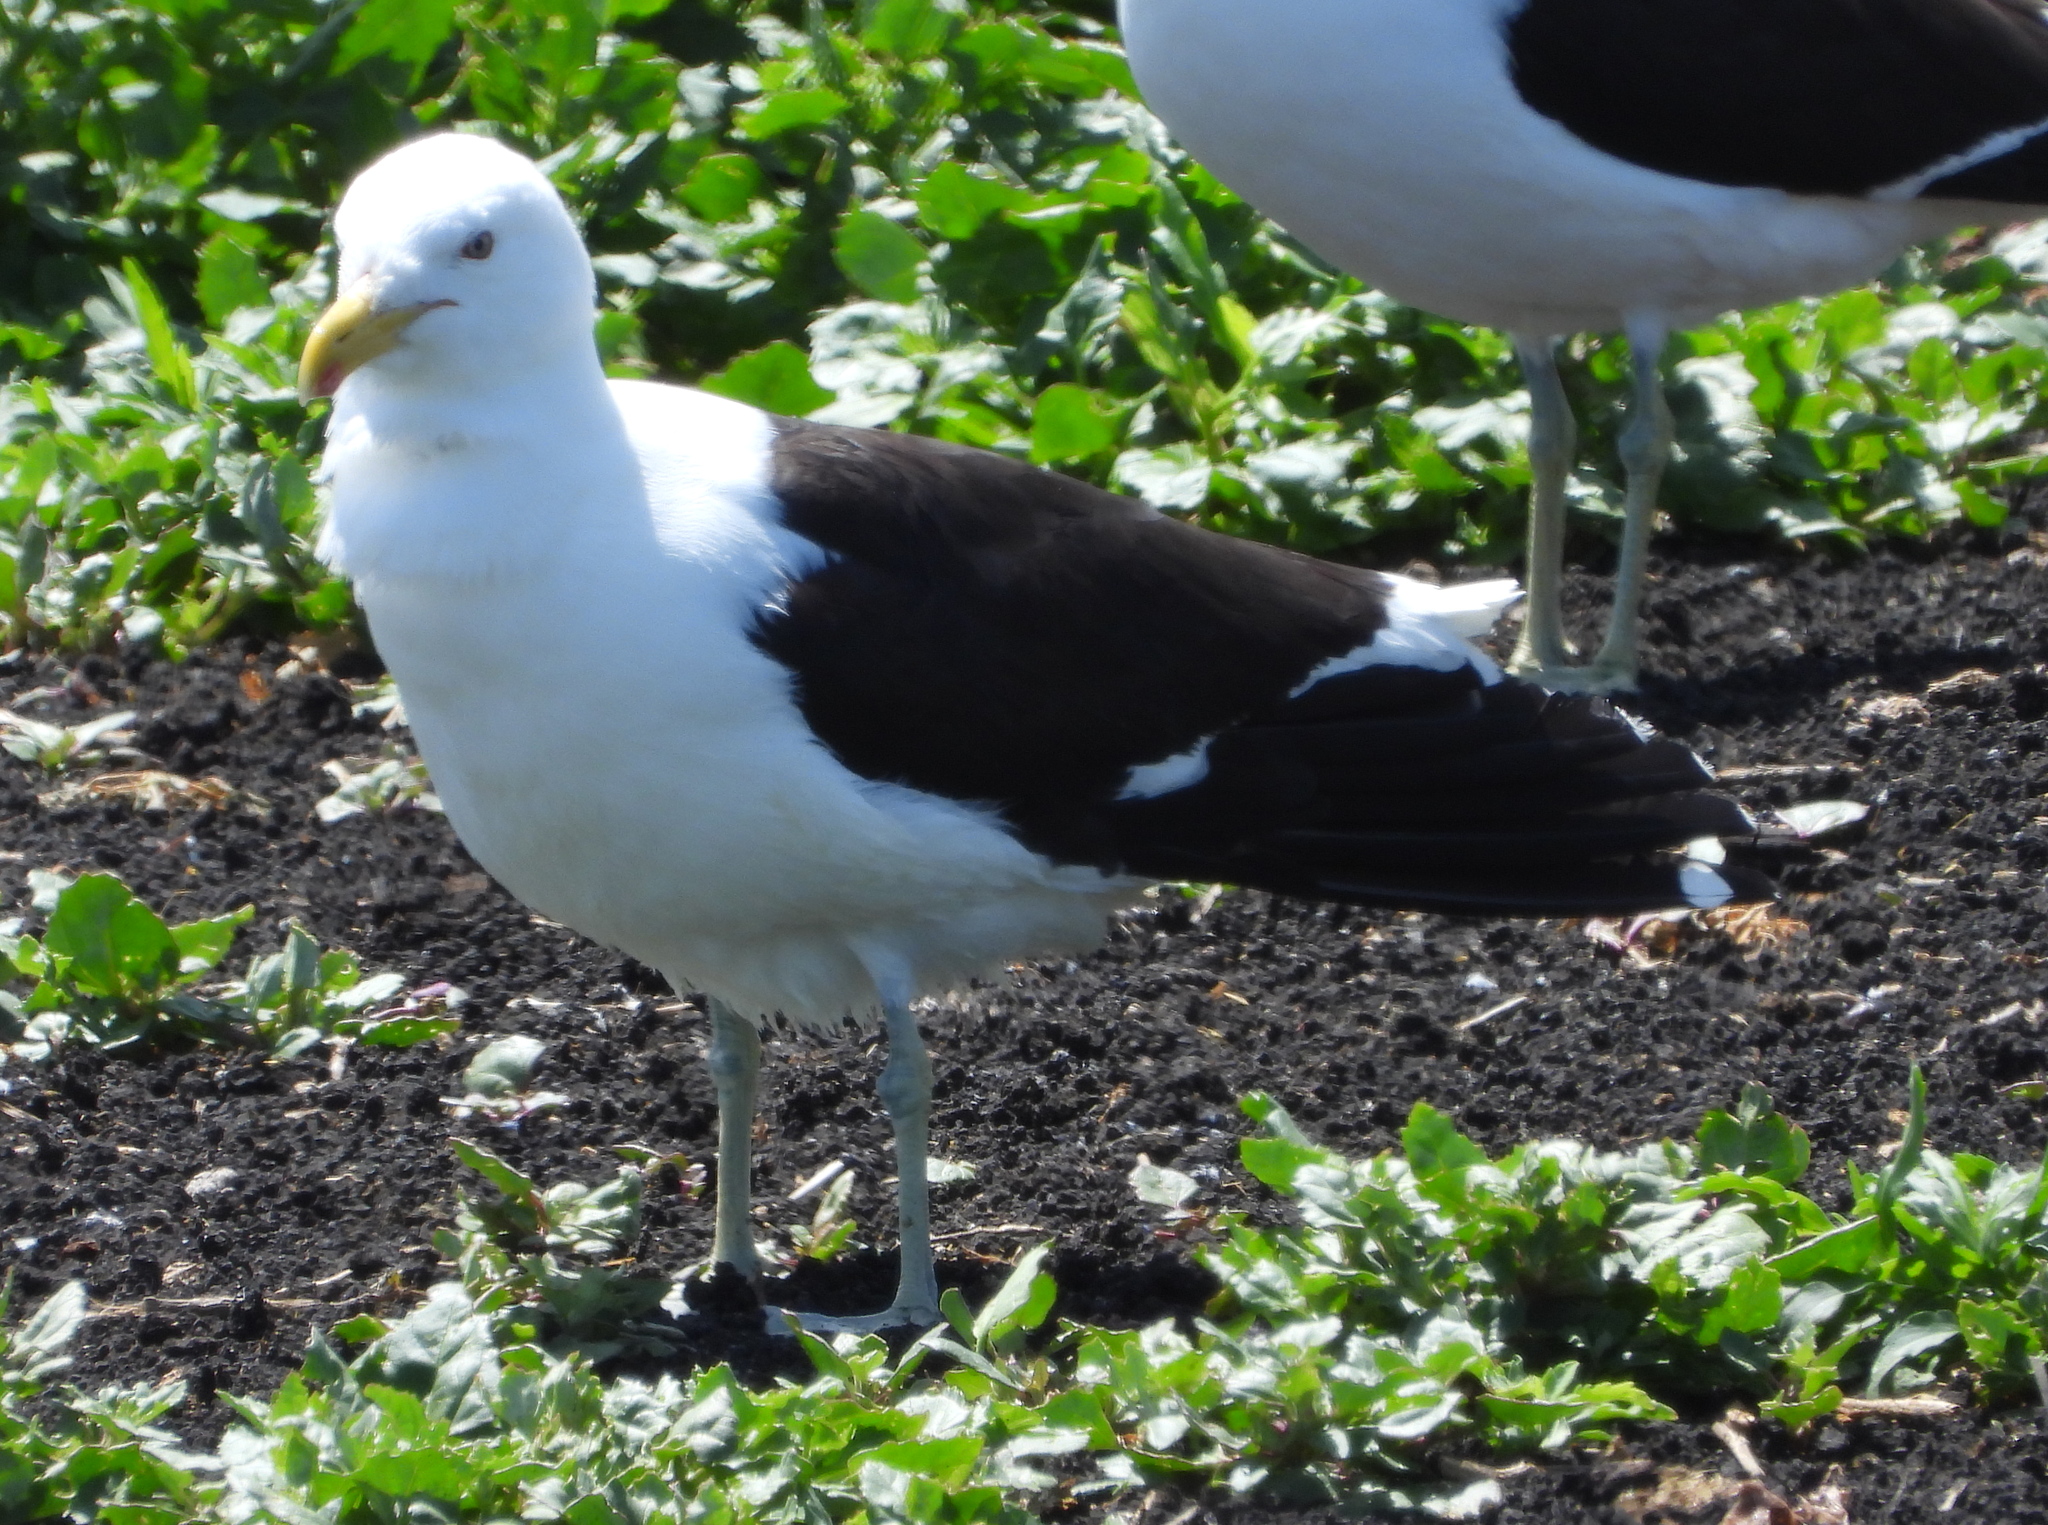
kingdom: Animalia
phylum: Chordata
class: Aves
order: Charadriiformes
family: Laridae
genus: Larus
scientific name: Larus dominicanus
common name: Kelp gull
